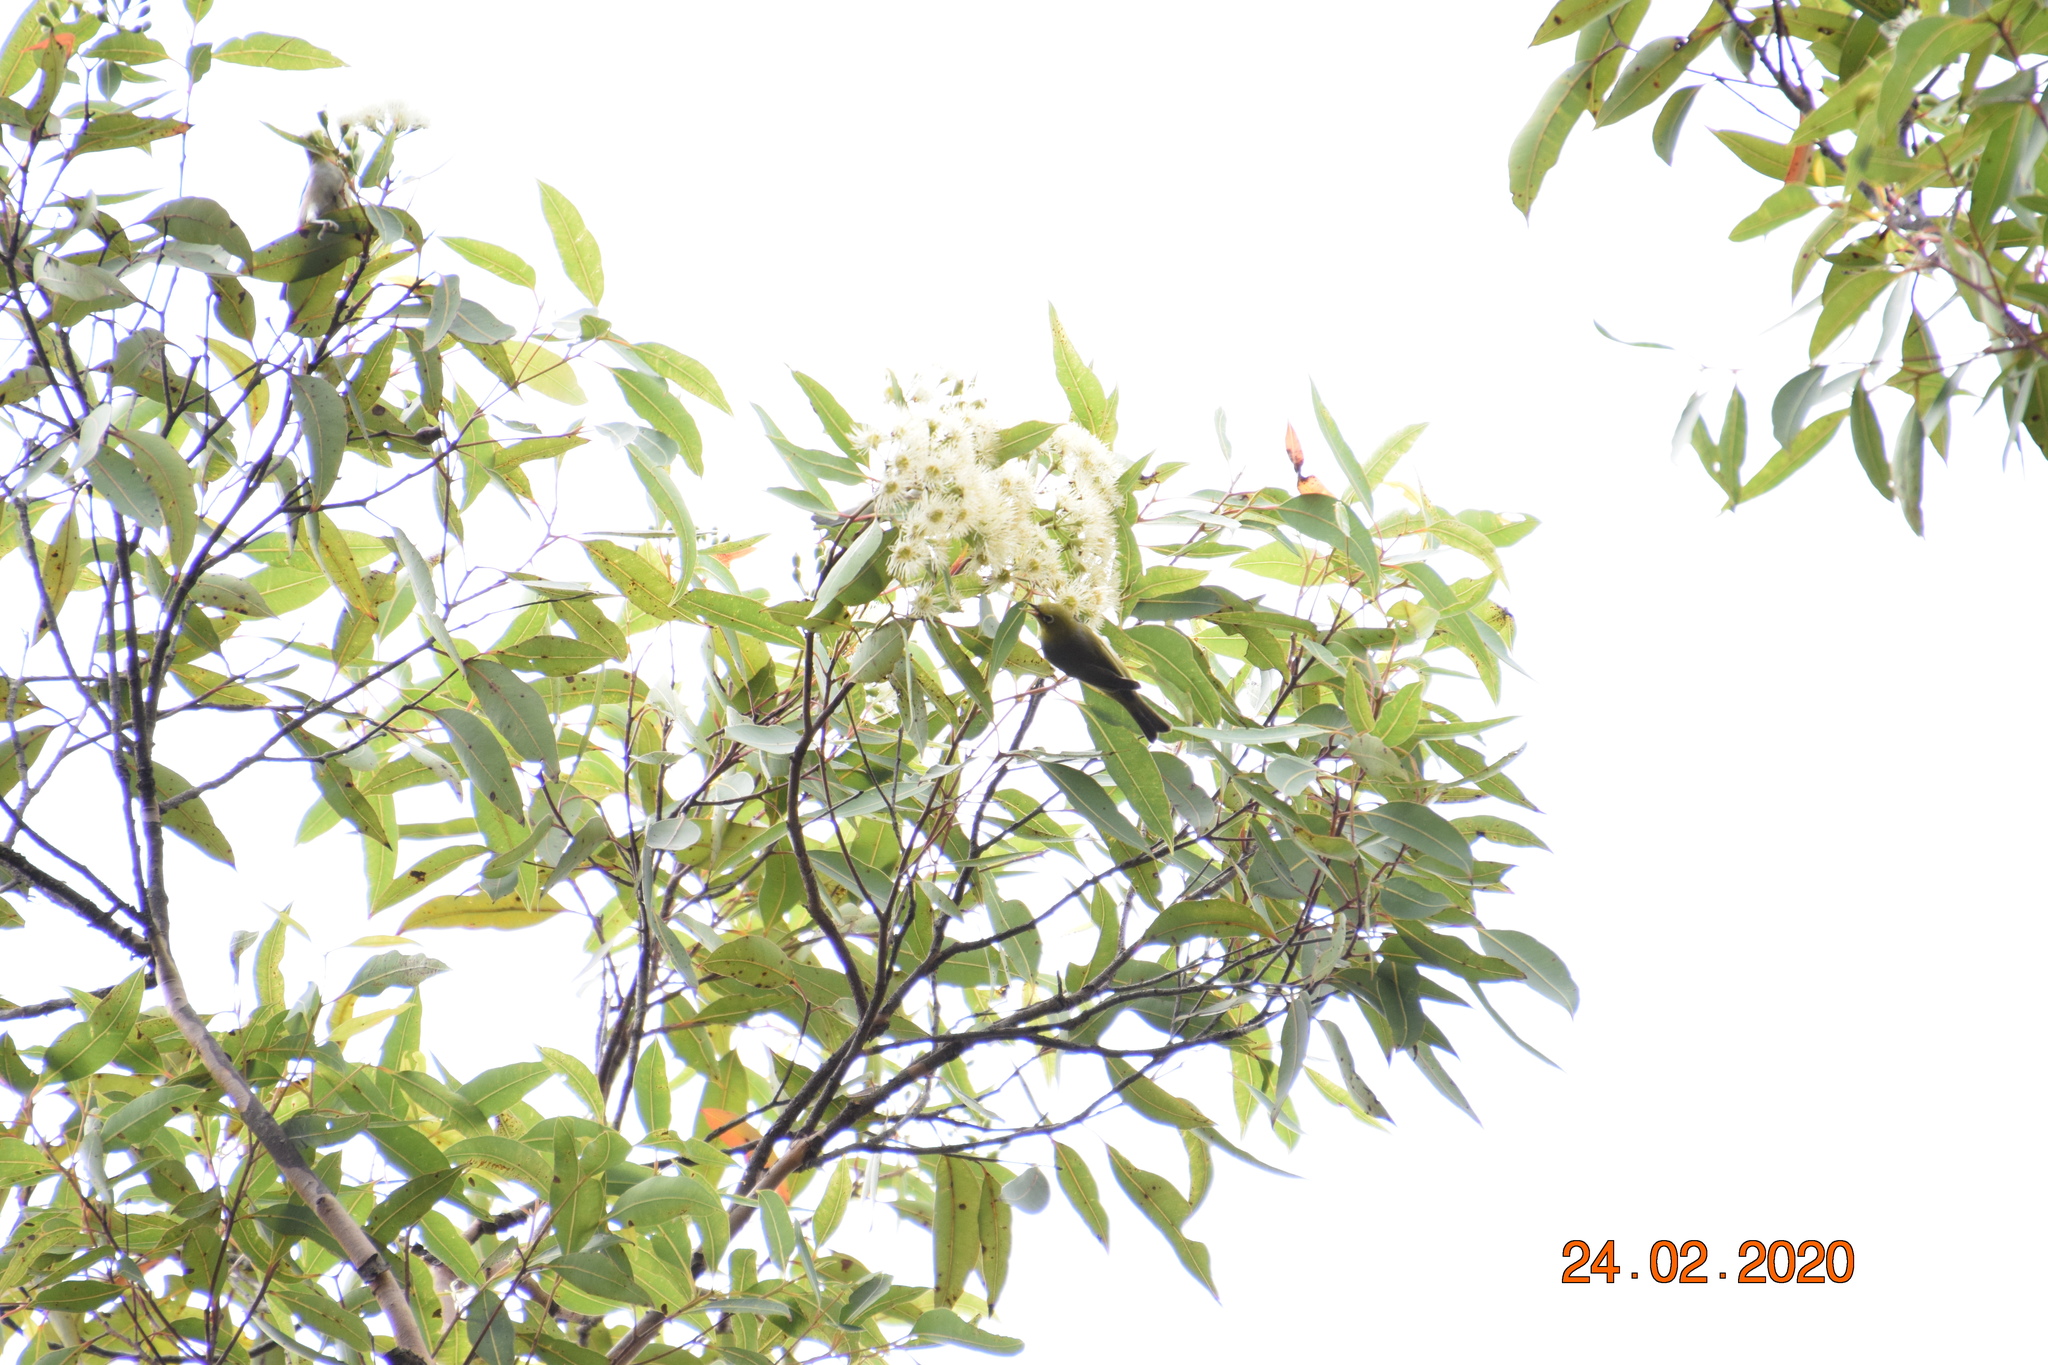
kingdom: Animalia
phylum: Chordata
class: Aves
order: Passeriformes
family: Zosteropidae
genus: Zosterops
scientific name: Zosterops lateralis
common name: Silvereye
